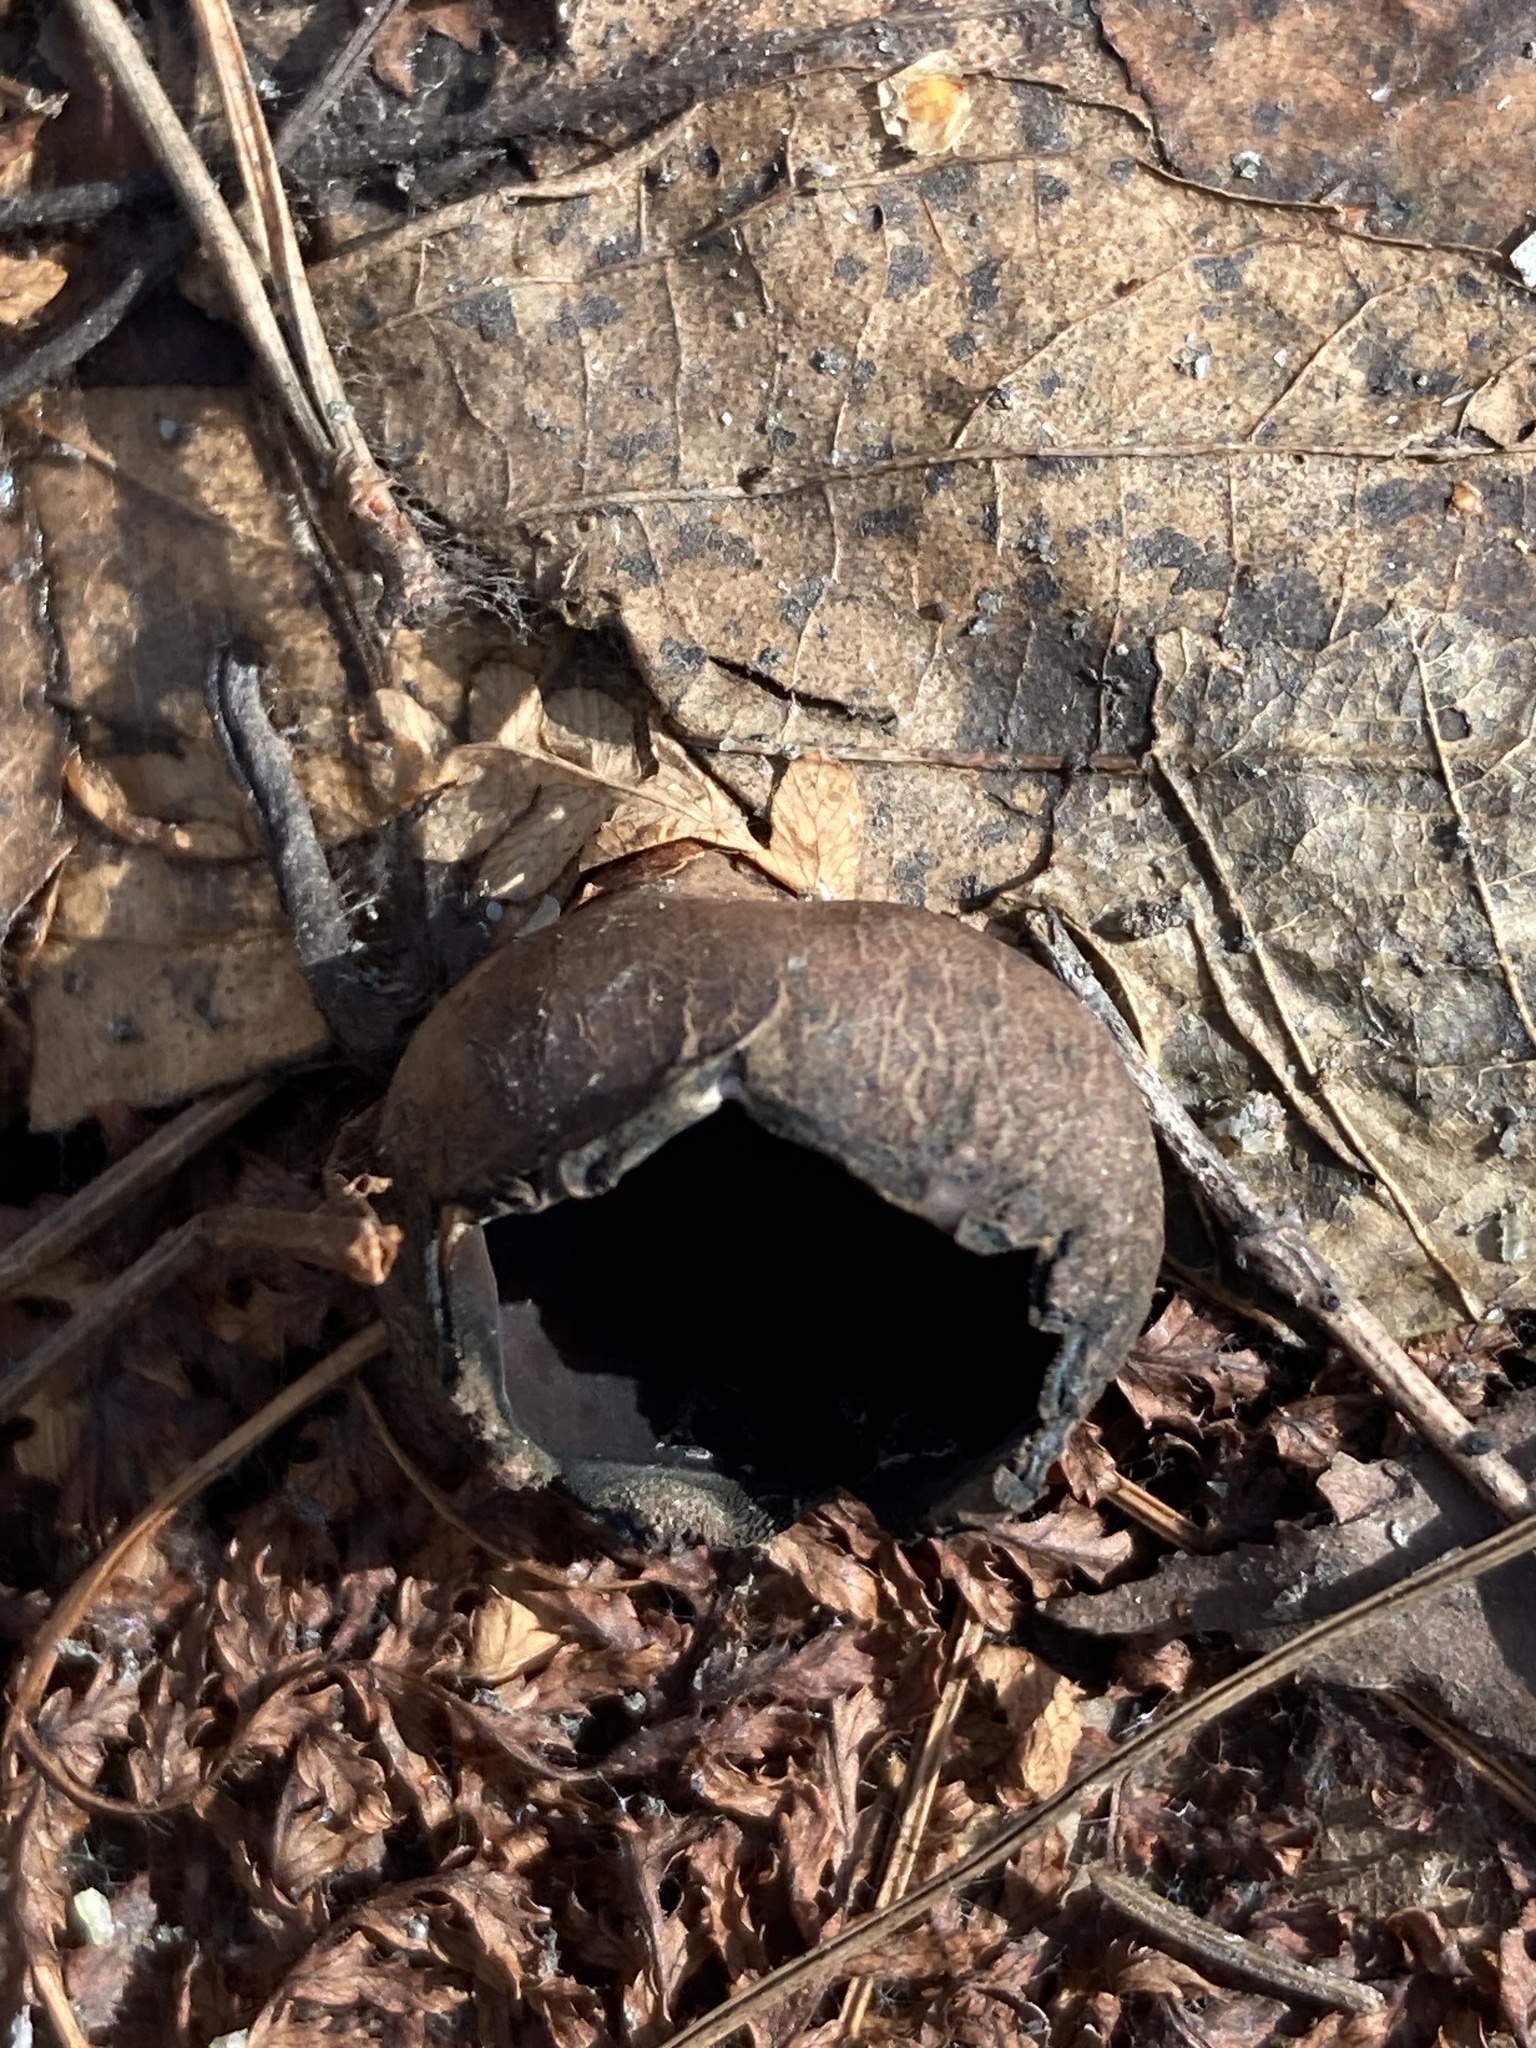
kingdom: Fungi
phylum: Ascomycota
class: Pezizomycetes
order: Pezizales
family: Sarcosomataceae
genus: Urnula
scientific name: Urnula craterium
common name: Devil's urn
